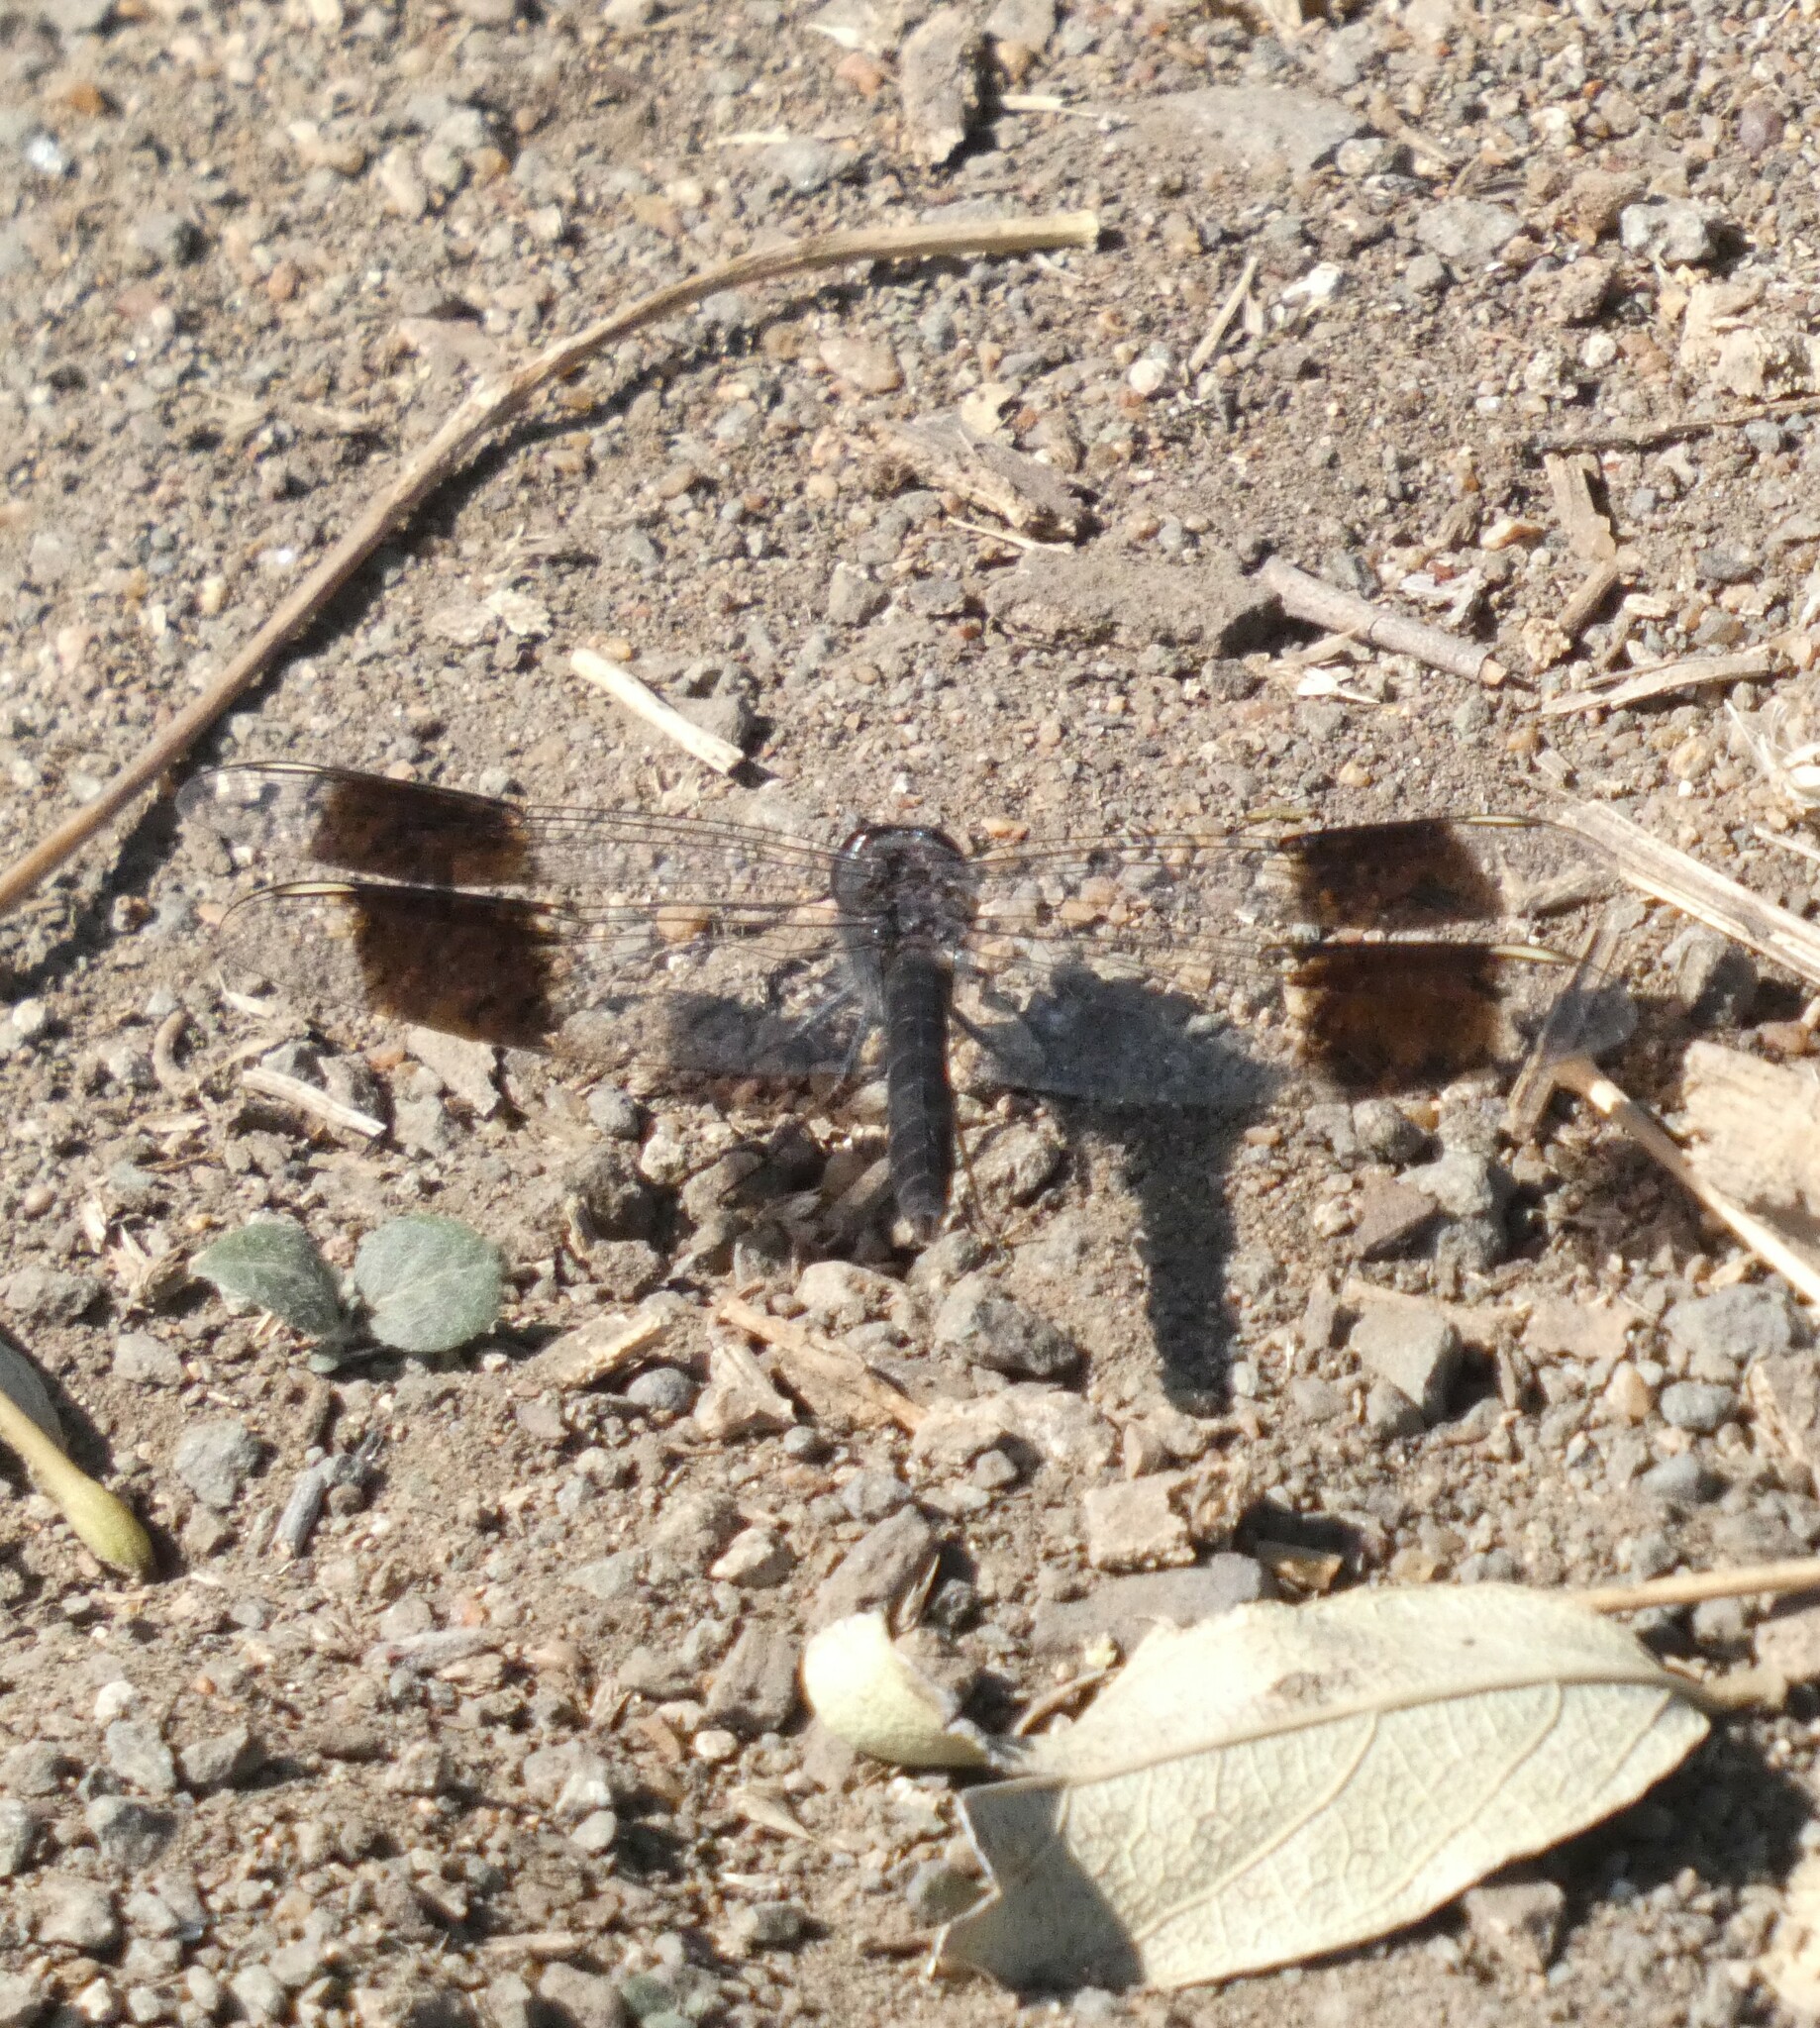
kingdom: Animalia
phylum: Arthropoda
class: Insecta
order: Odonata
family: Libellulidae
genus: Brachythemis
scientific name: Brachythemis leucosticta
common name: Banded groundling
